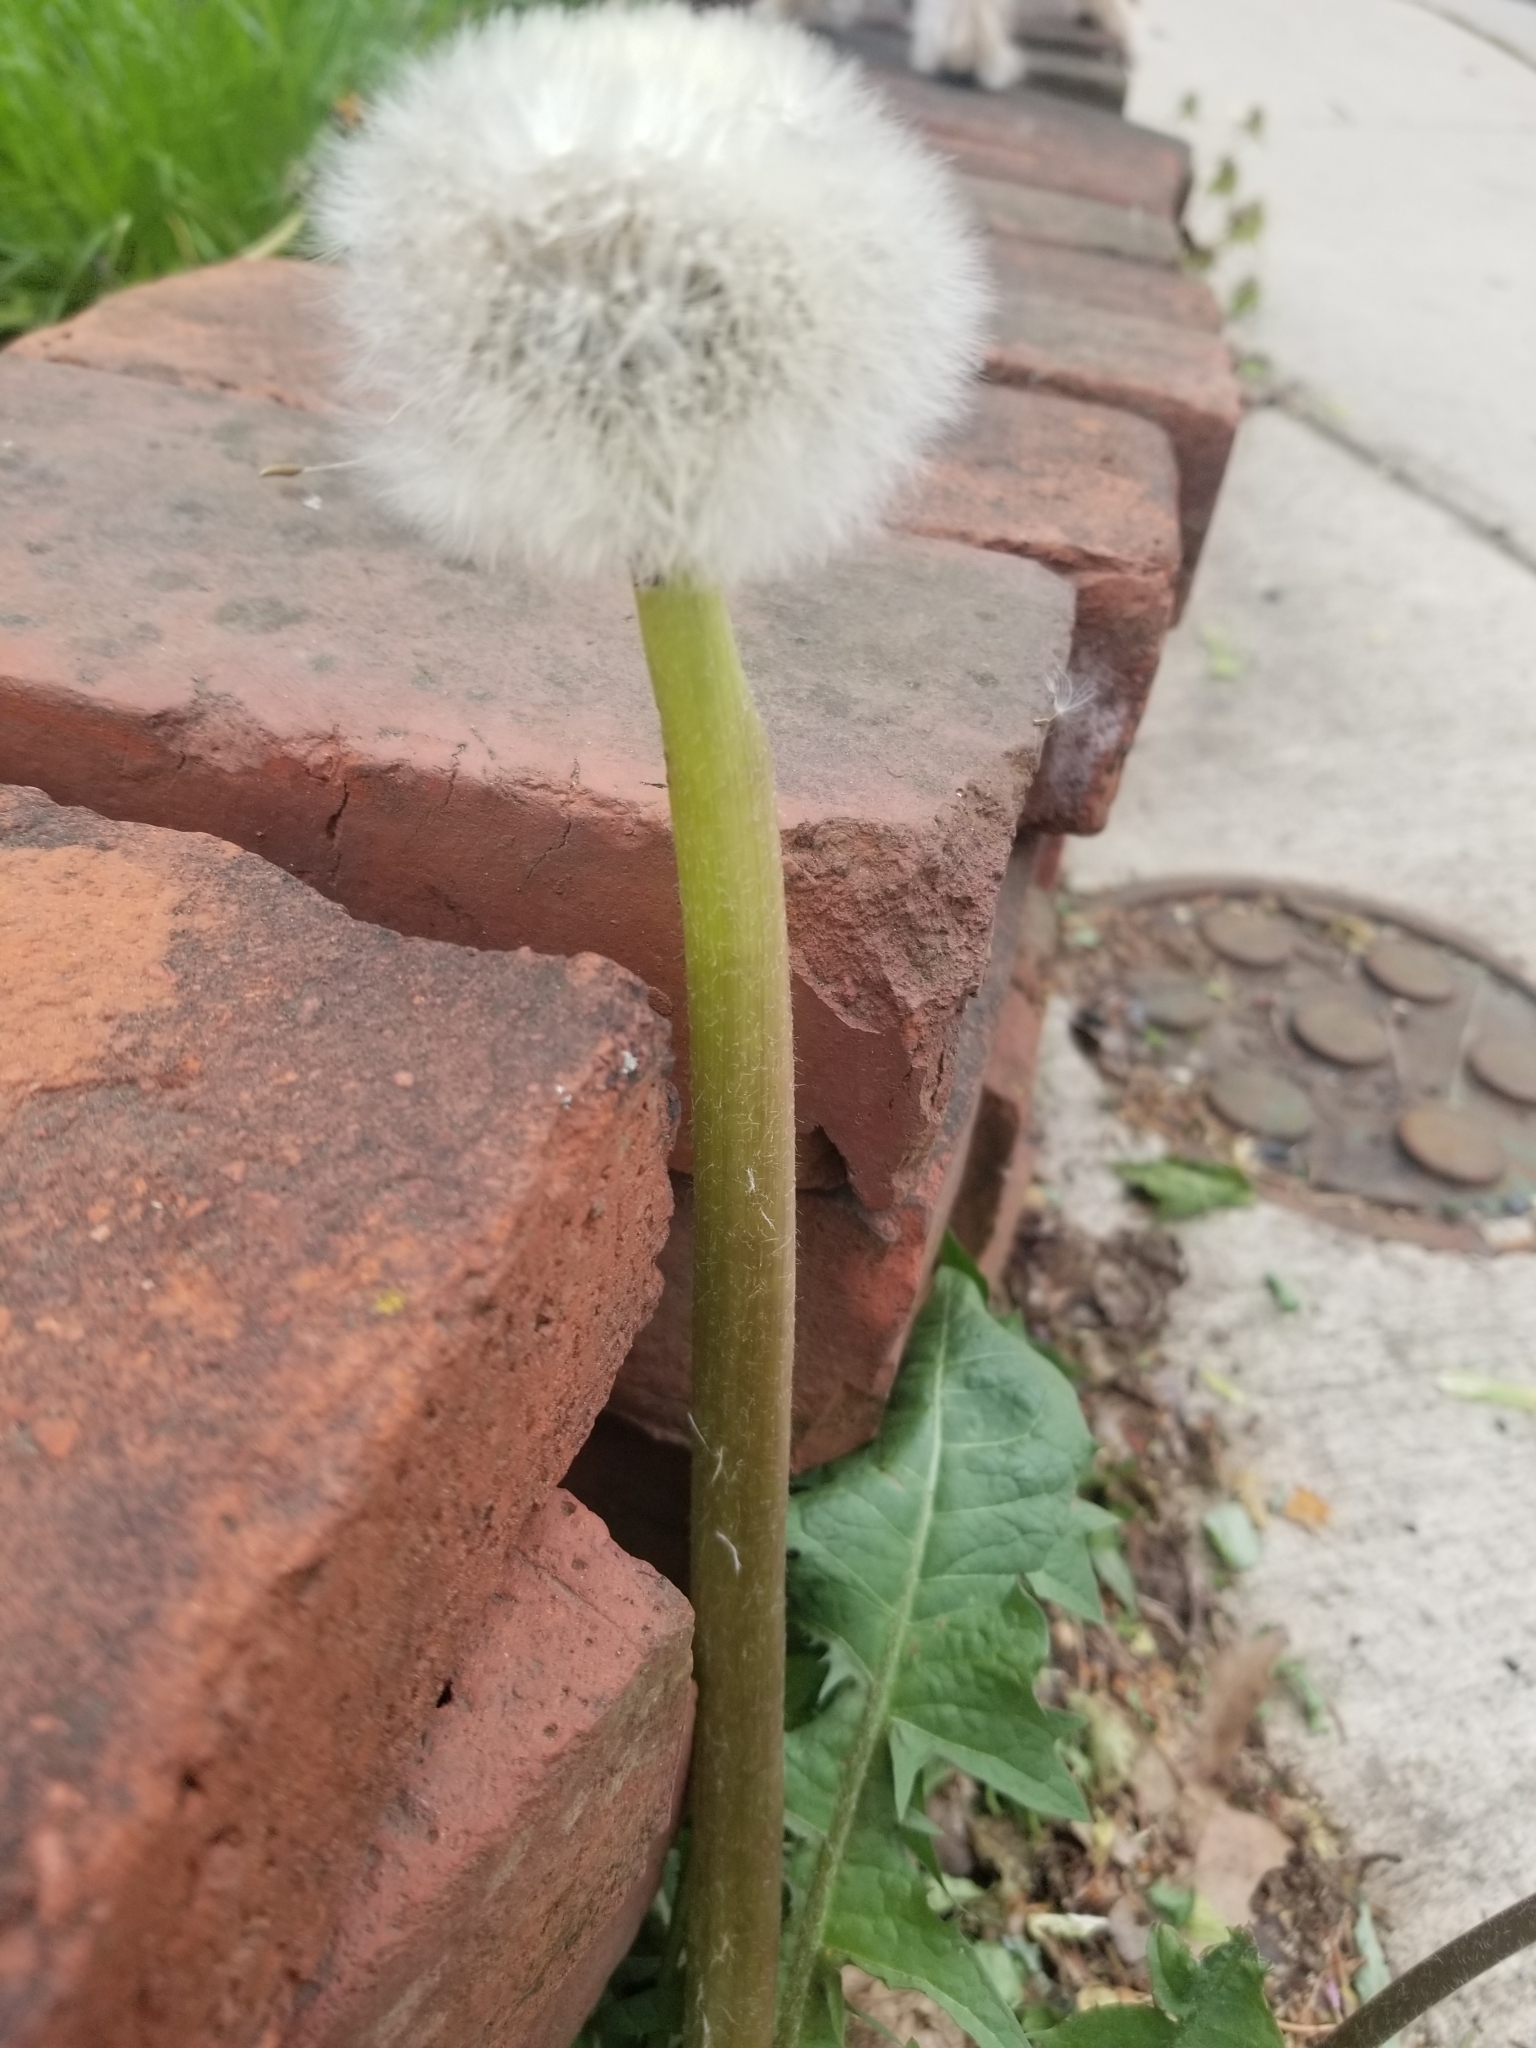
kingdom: Plantae
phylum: Tracheophyta
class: Magnoliopsida
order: Asterales
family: Asteraceae
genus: Taraxacum
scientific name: Taraxacum officinale
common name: Common dandelion
